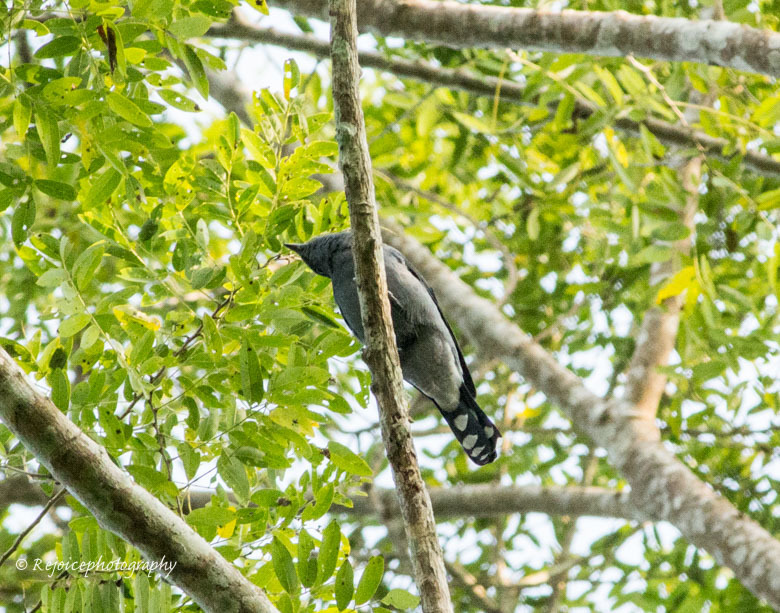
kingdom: Animalia
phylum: Chordata
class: Aves
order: Passeriformes
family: Campephagidae
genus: Coracina
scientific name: Coracina melaschistos
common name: Black-winged cuckooshrike
